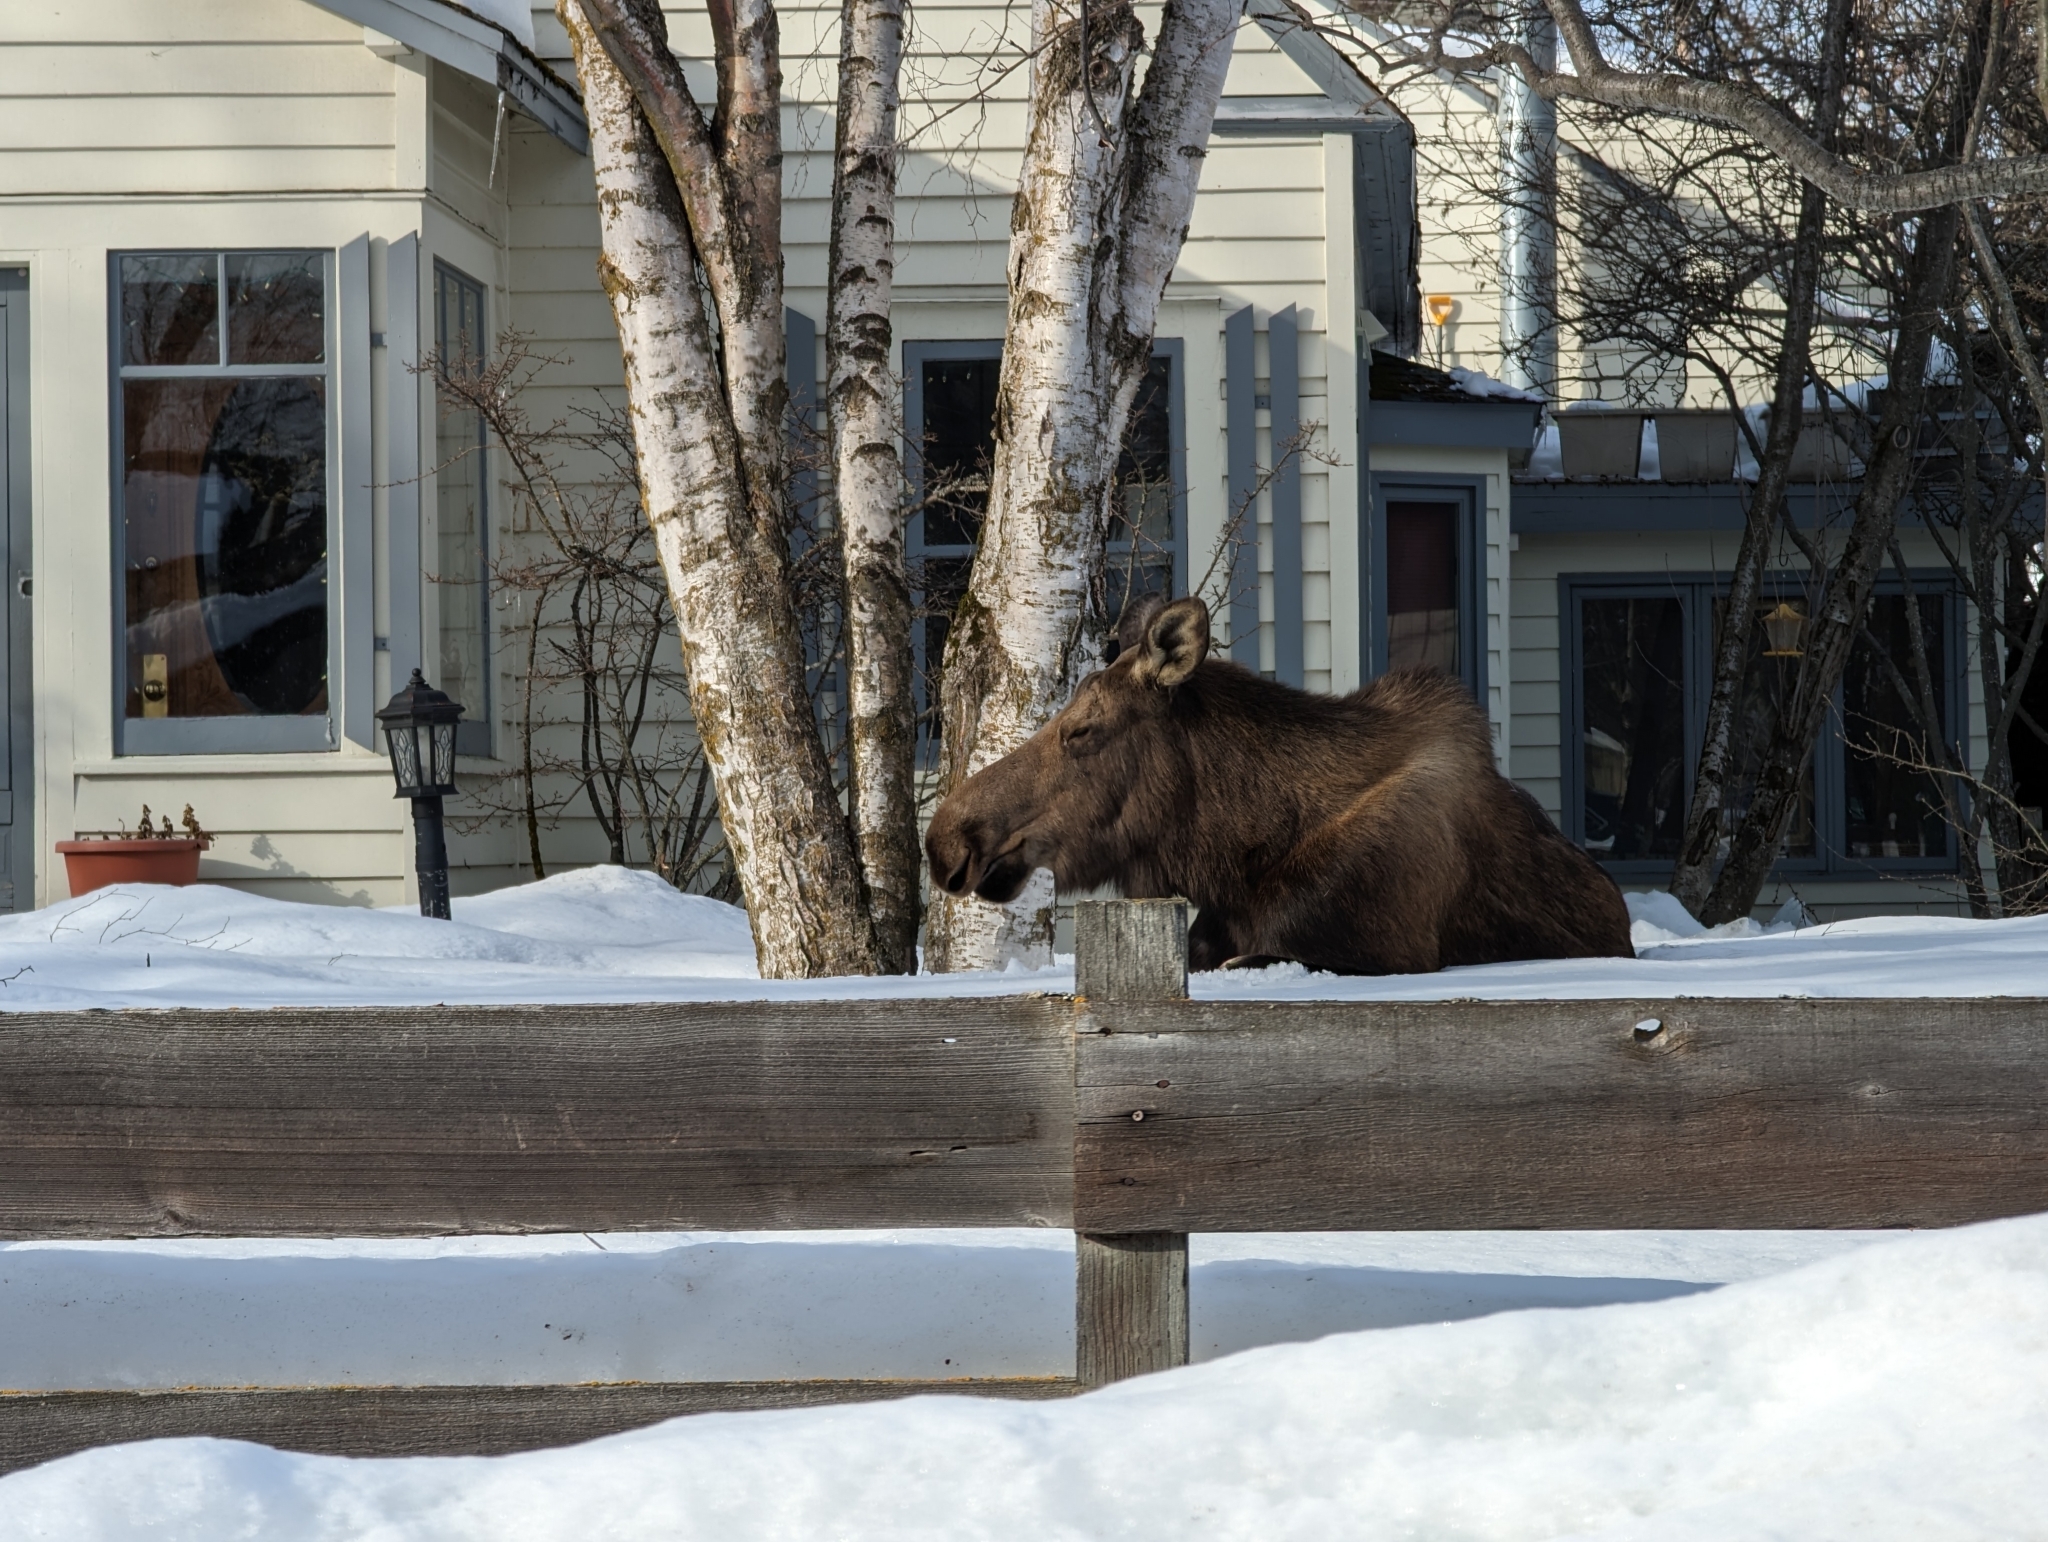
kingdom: Animalia
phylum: Chordata
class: Mammalia
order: Artiodactyla
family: Cervidae
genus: Alces
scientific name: Alces alces
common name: Moose
